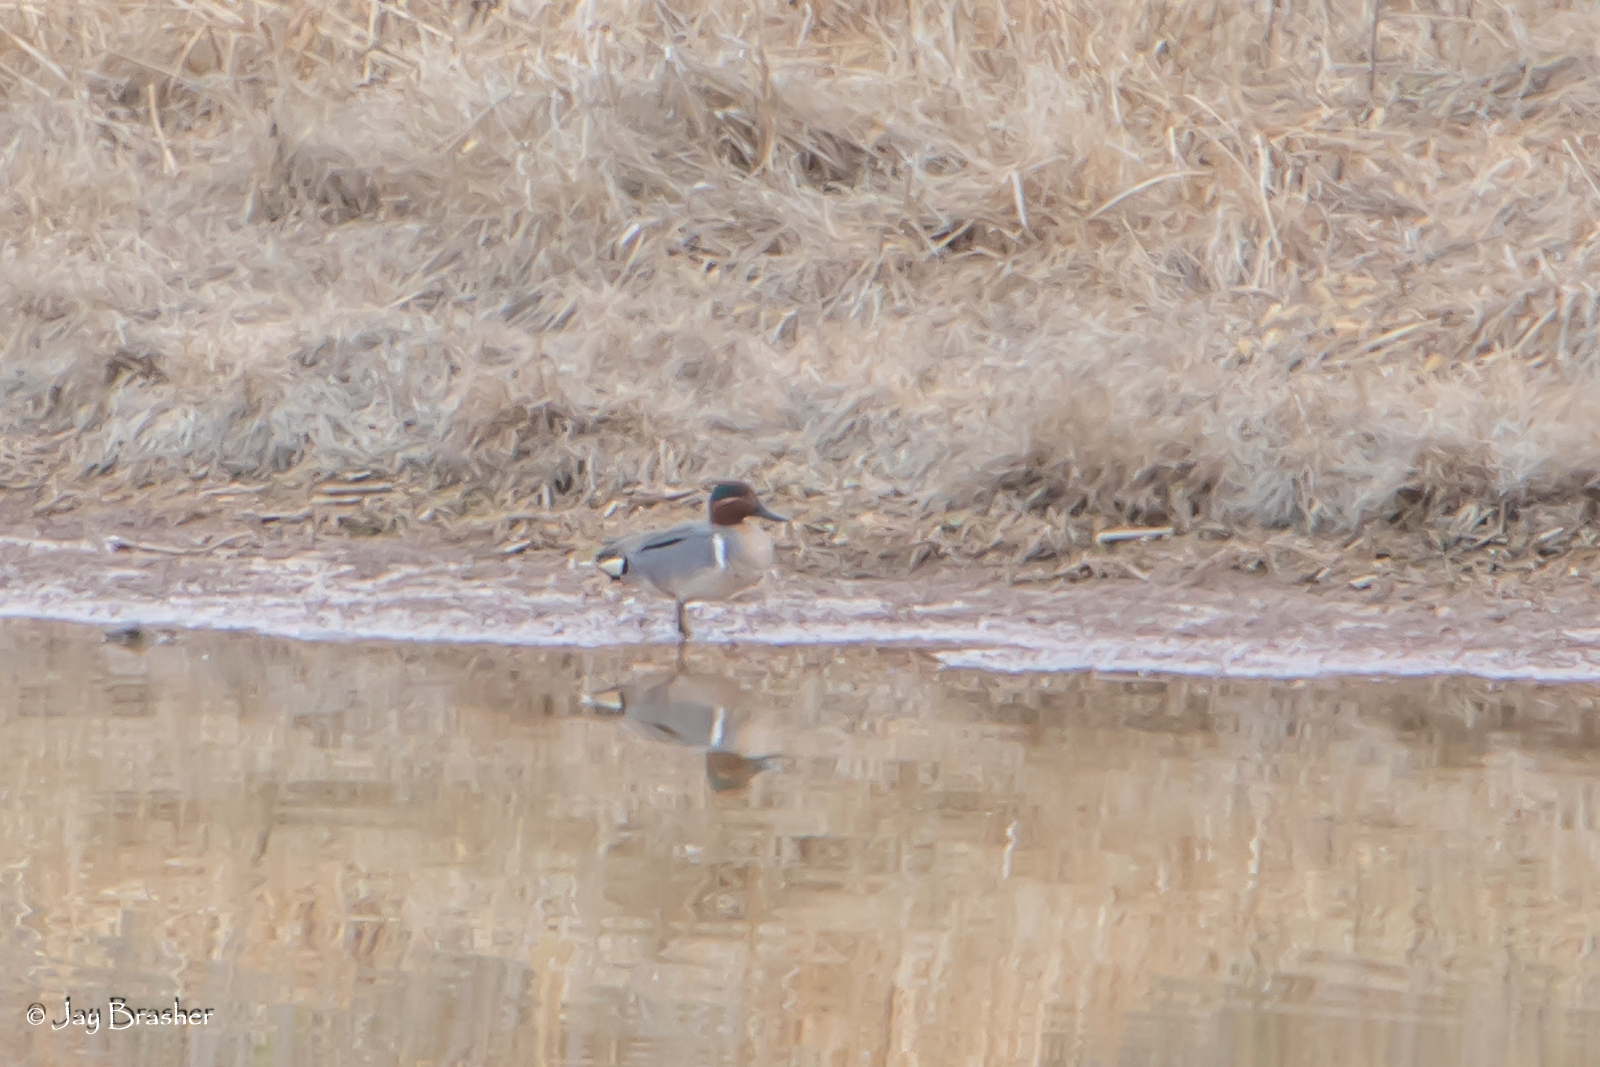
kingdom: Animalia
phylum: Chordata
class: Aves
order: Anseriformes
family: Anatidae
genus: Anas
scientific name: Anas crecca
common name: Eurasian teal
